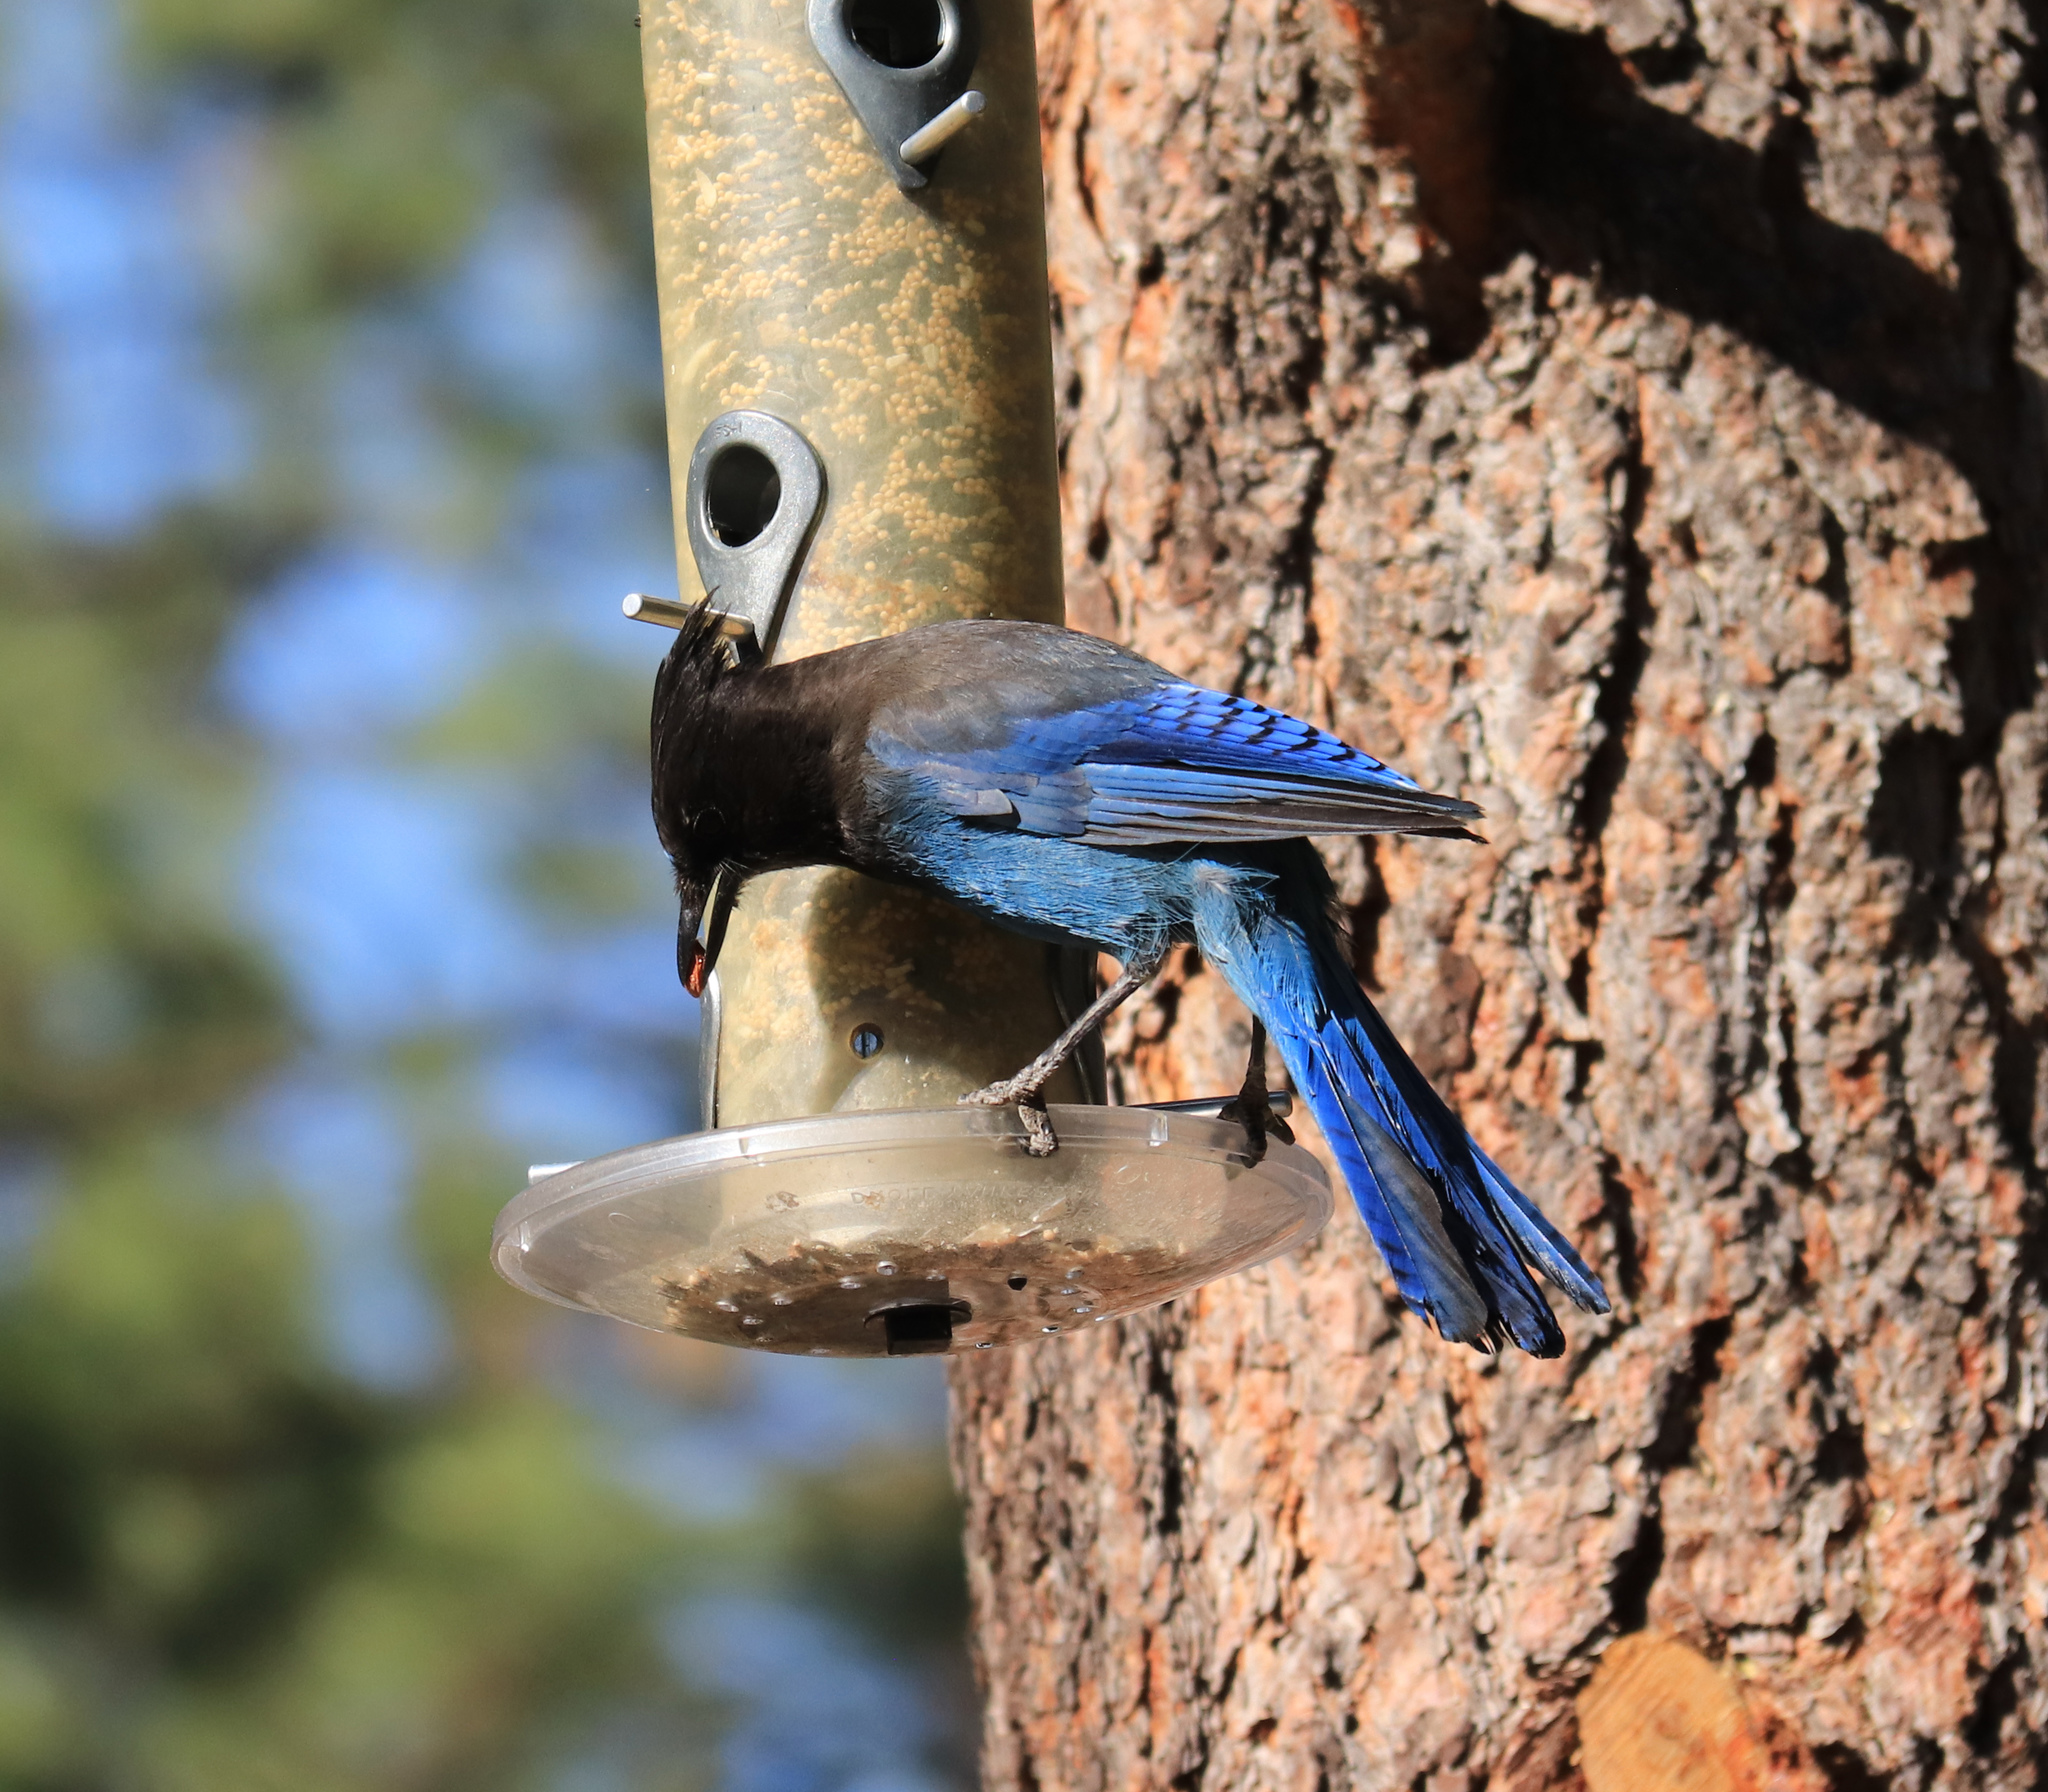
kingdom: Animalia
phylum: Chordata
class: Aves
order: Passeriformes
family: Corvidae
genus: Cyanocitta
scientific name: Cyanocitta stelleri
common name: Steller's jay
